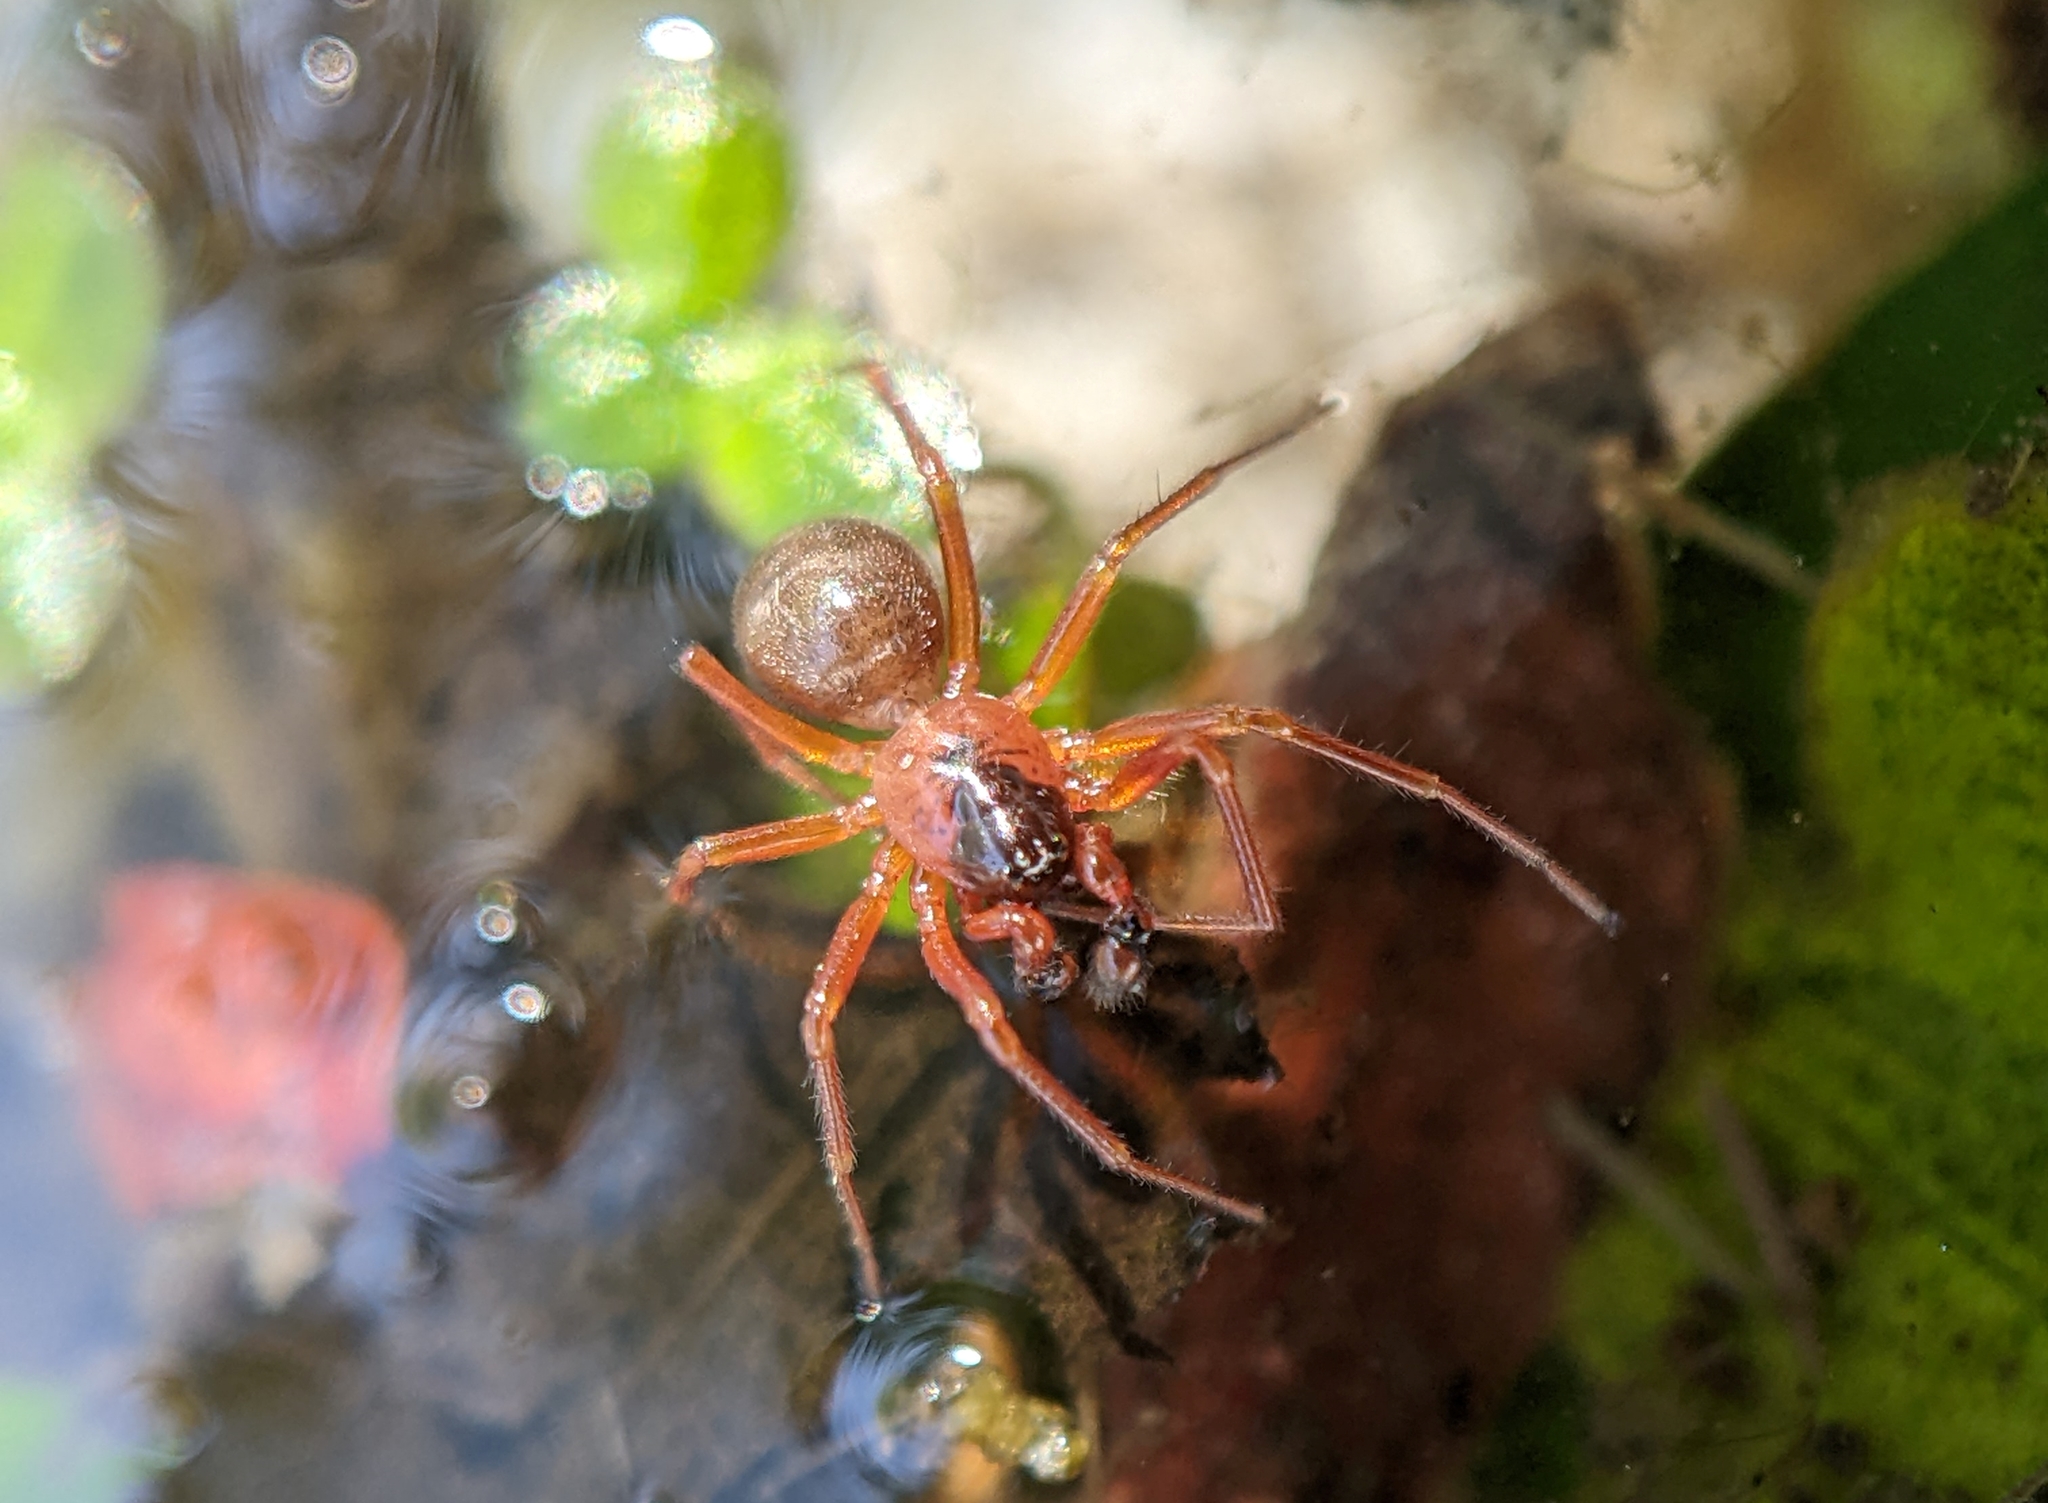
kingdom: Animalia
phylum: Arthropoda
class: Arachnida
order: Araneae
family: Linyphiidae
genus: Gongylidium
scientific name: Gongylidium rufipes
